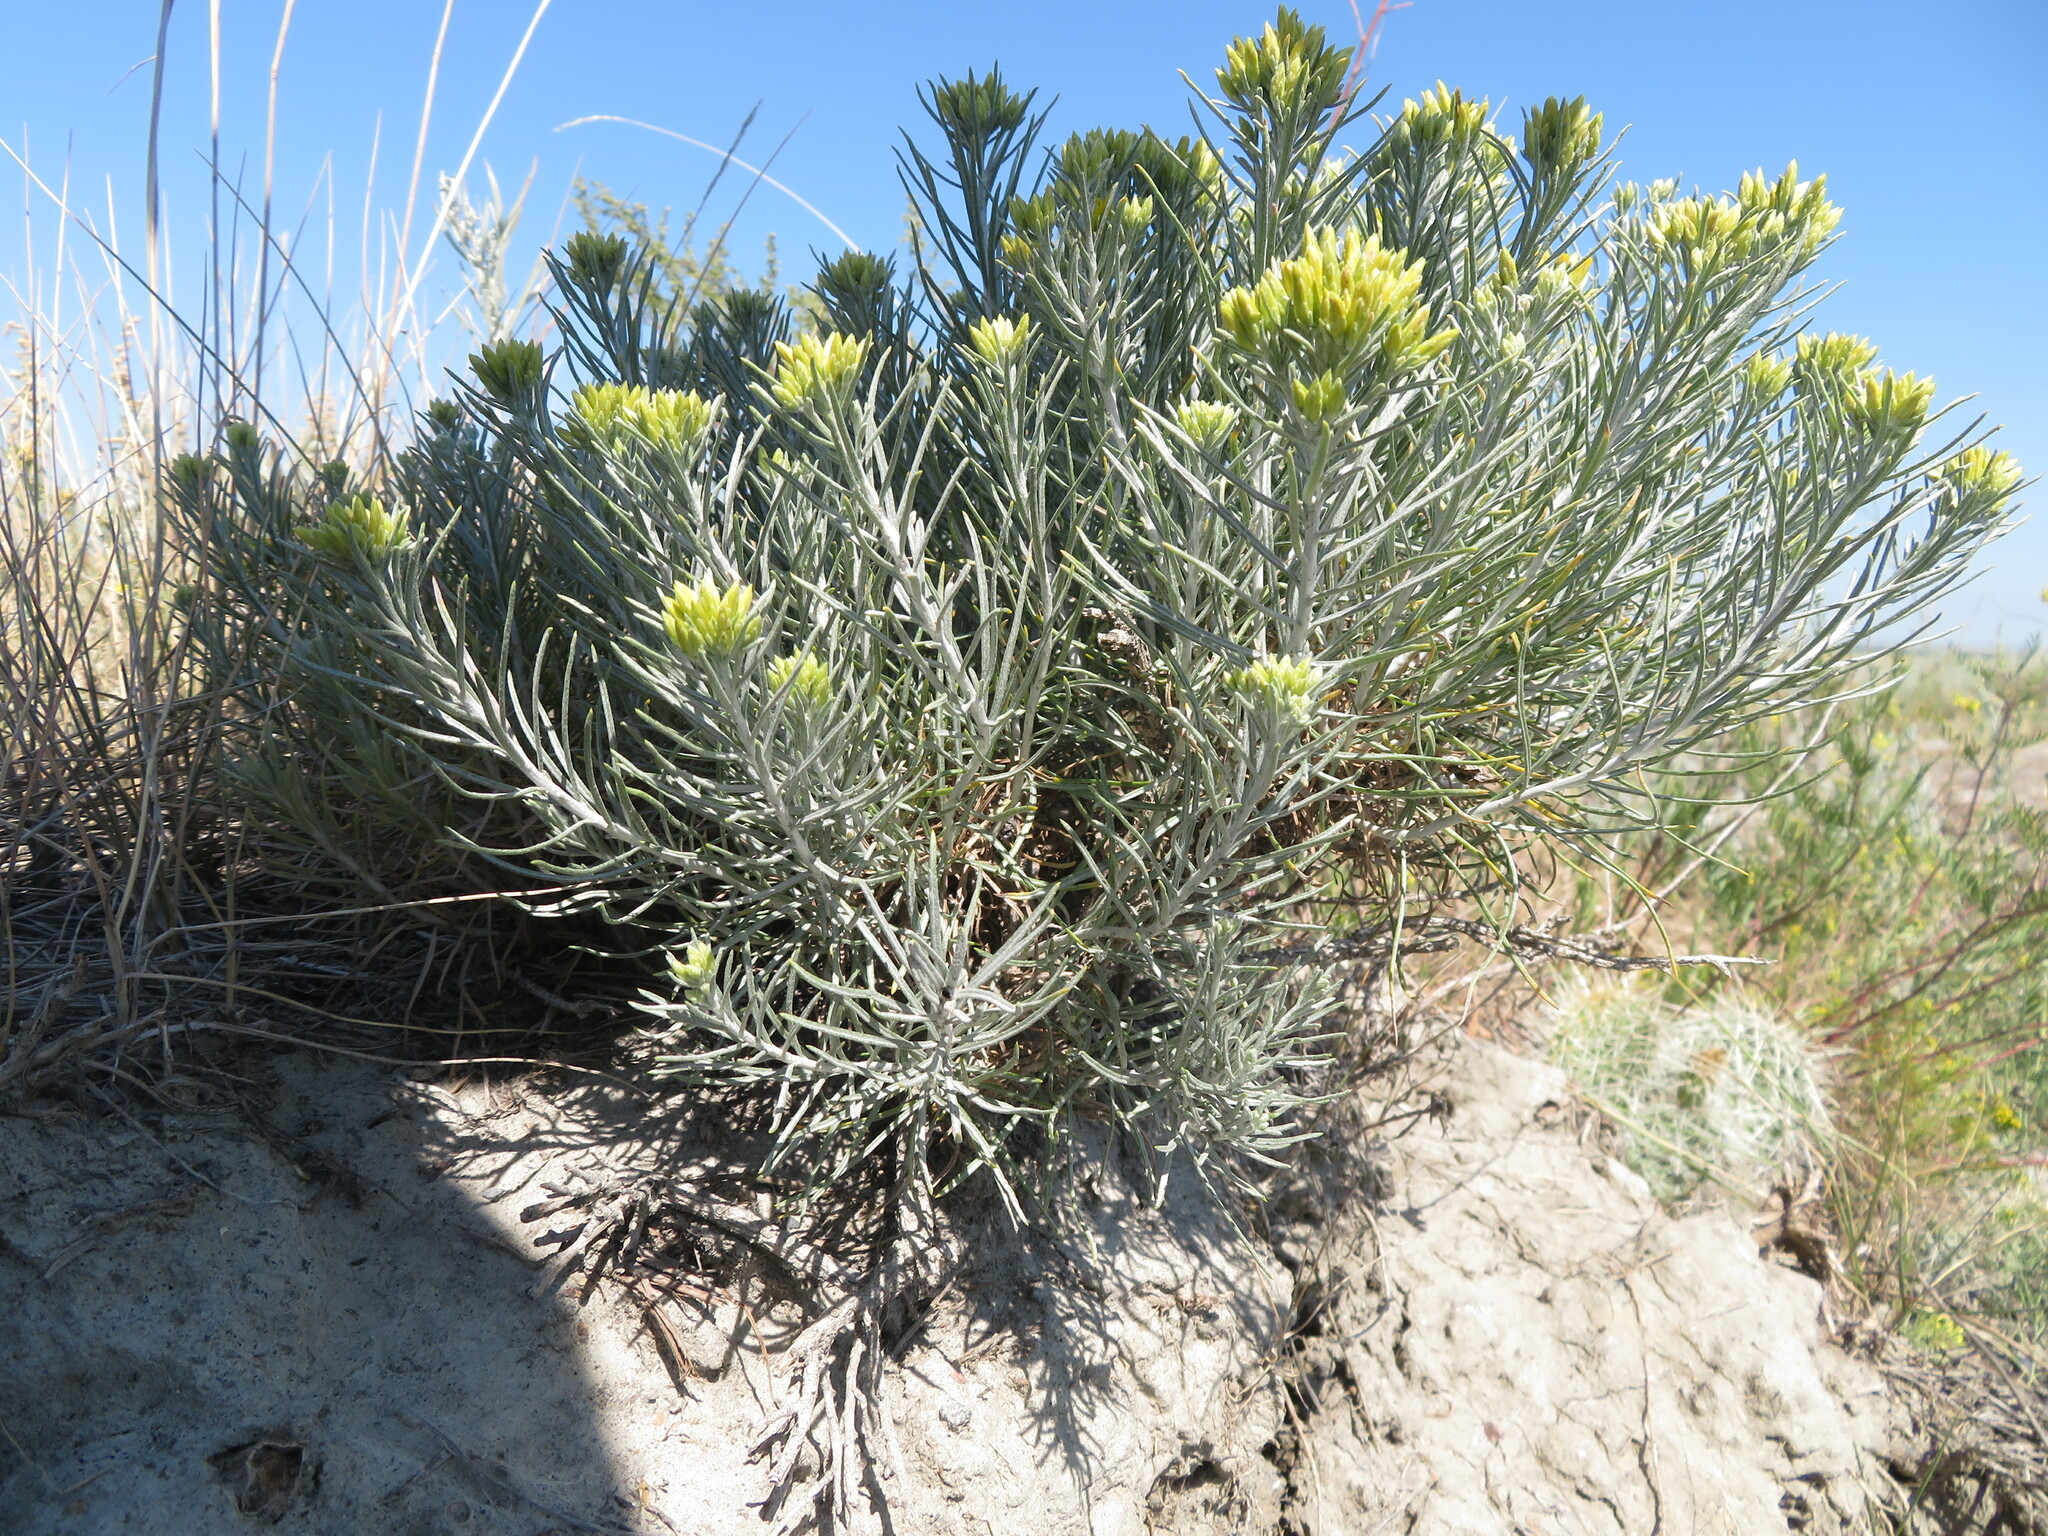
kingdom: Plantae
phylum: Tracheophyta
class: Magnoliopsida
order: Asterales
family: Asteraceae
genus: Ericameria
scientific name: Ericameria nauseosa
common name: Rubber rabbitbrush
